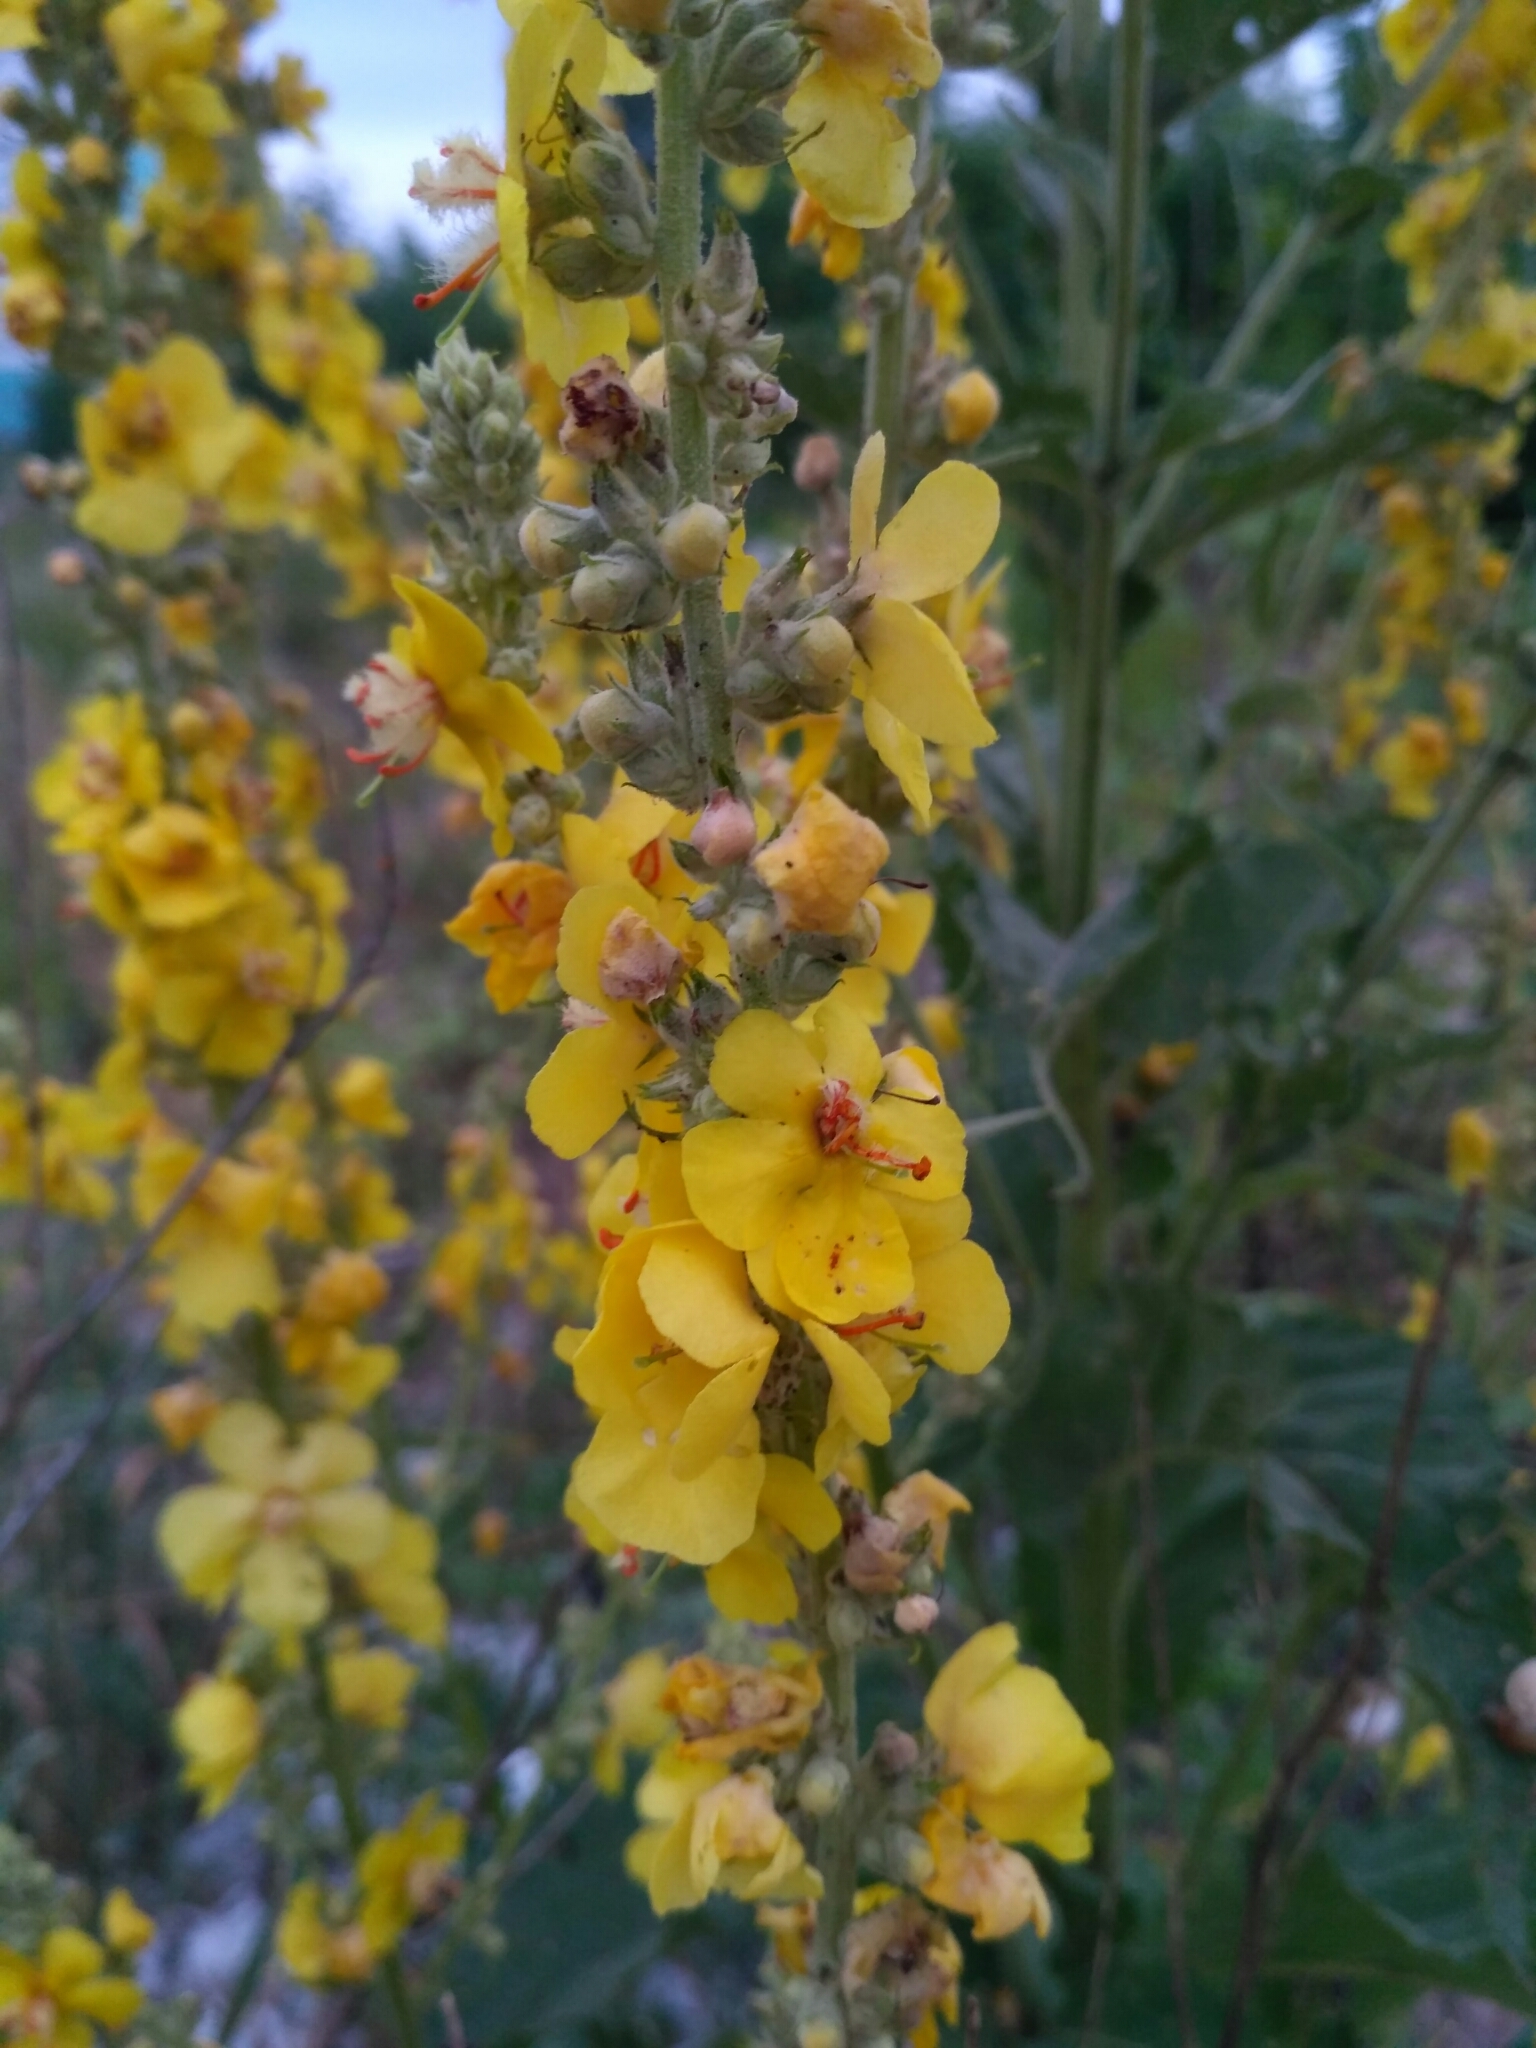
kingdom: Plantae
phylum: Tracheophyta
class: Magnoliopsida
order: Lamiales
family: Scrophulariaceae
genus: Verbascum
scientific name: Verbascum lychnitis
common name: White mullein
